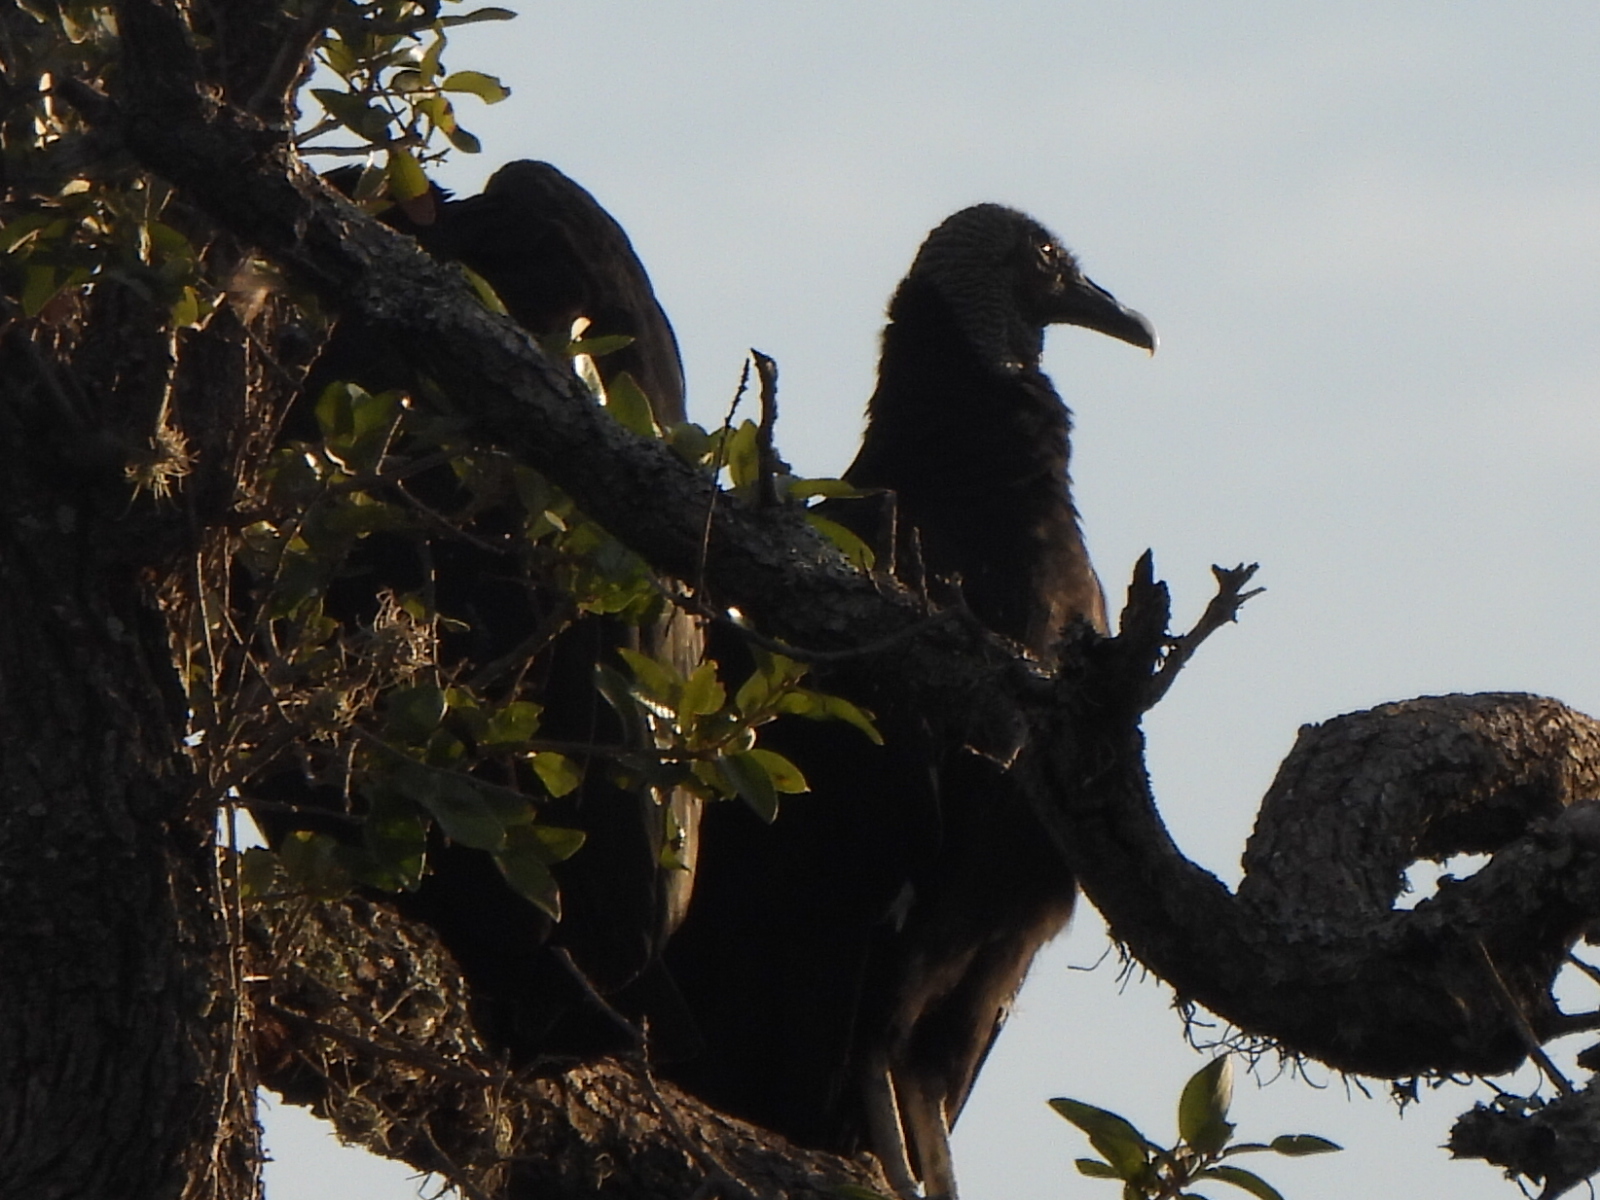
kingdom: Animalia
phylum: Chordata
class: Aves
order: Accipitriformes
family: Cathartidae
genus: Coragyps
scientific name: Coragyps atratus
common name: Black vulture
